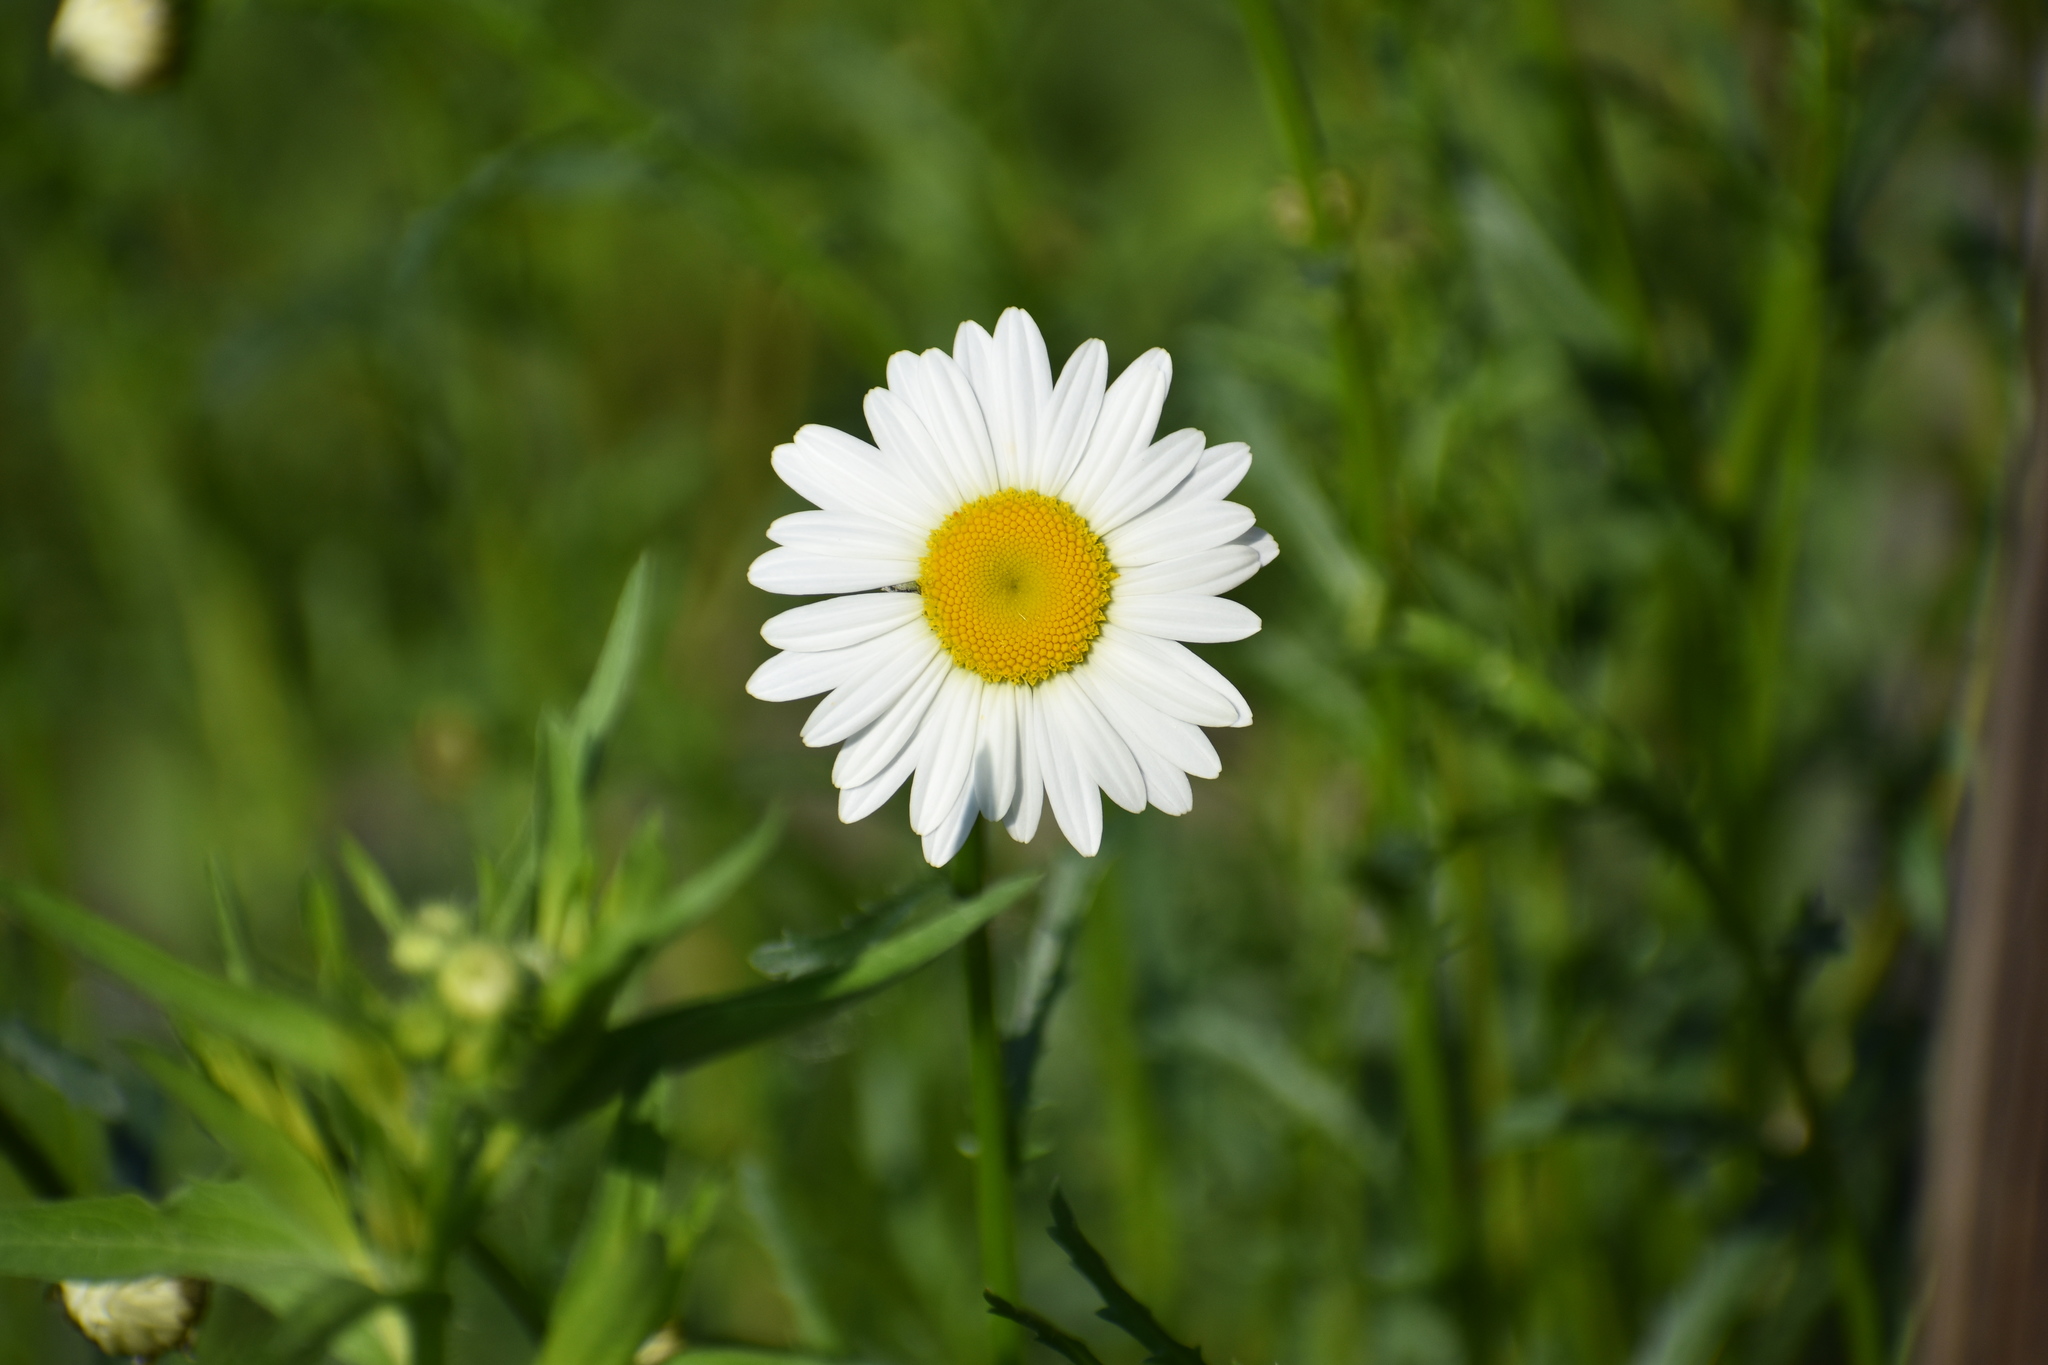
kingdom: Plantae
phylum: Tracheophyta
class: Magnoliopsida
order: Asterales
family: Asteraceae
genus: Leucanthemum
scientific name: Leucanthemum vulgare
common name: Oxeye daisy
